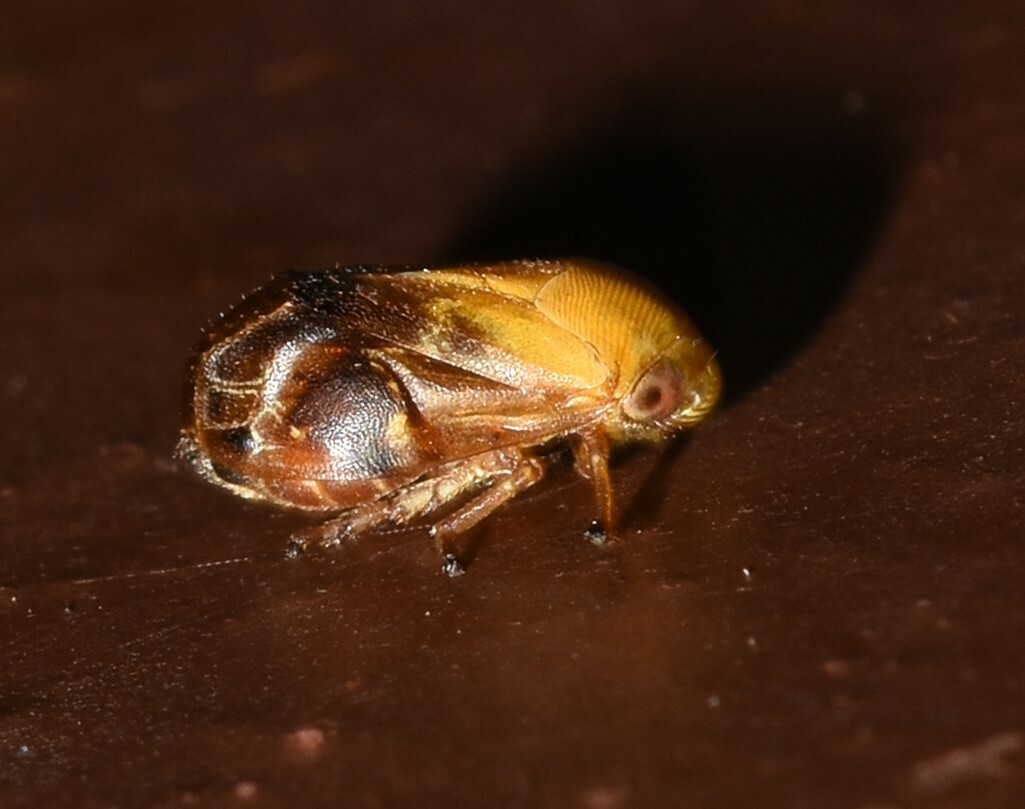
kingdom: Animalia
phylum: Arthropoda
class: Insecta
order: Hemiptera
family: Clastopteridae
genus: Clastoptera
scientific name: Clastoptera achatina
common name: Pecan spittlebug
